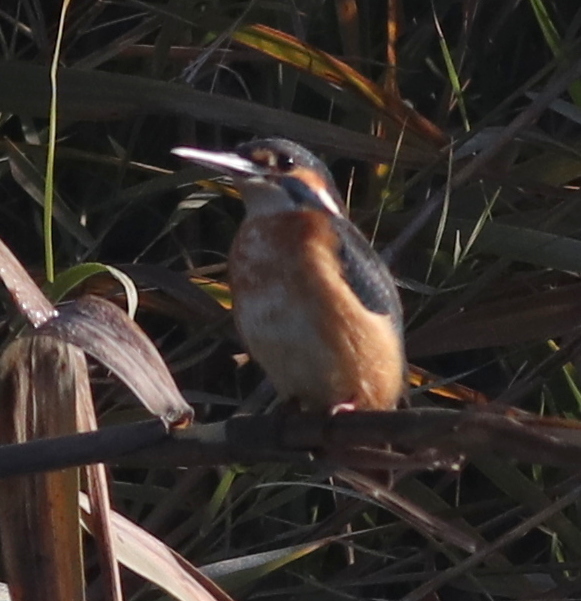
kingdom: Animalia
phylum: Chordata
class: Aves
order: Coraciiformes
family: Alcedinidae
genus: Alcedo
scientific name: Alcedo atthis
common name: Common kingfisher
